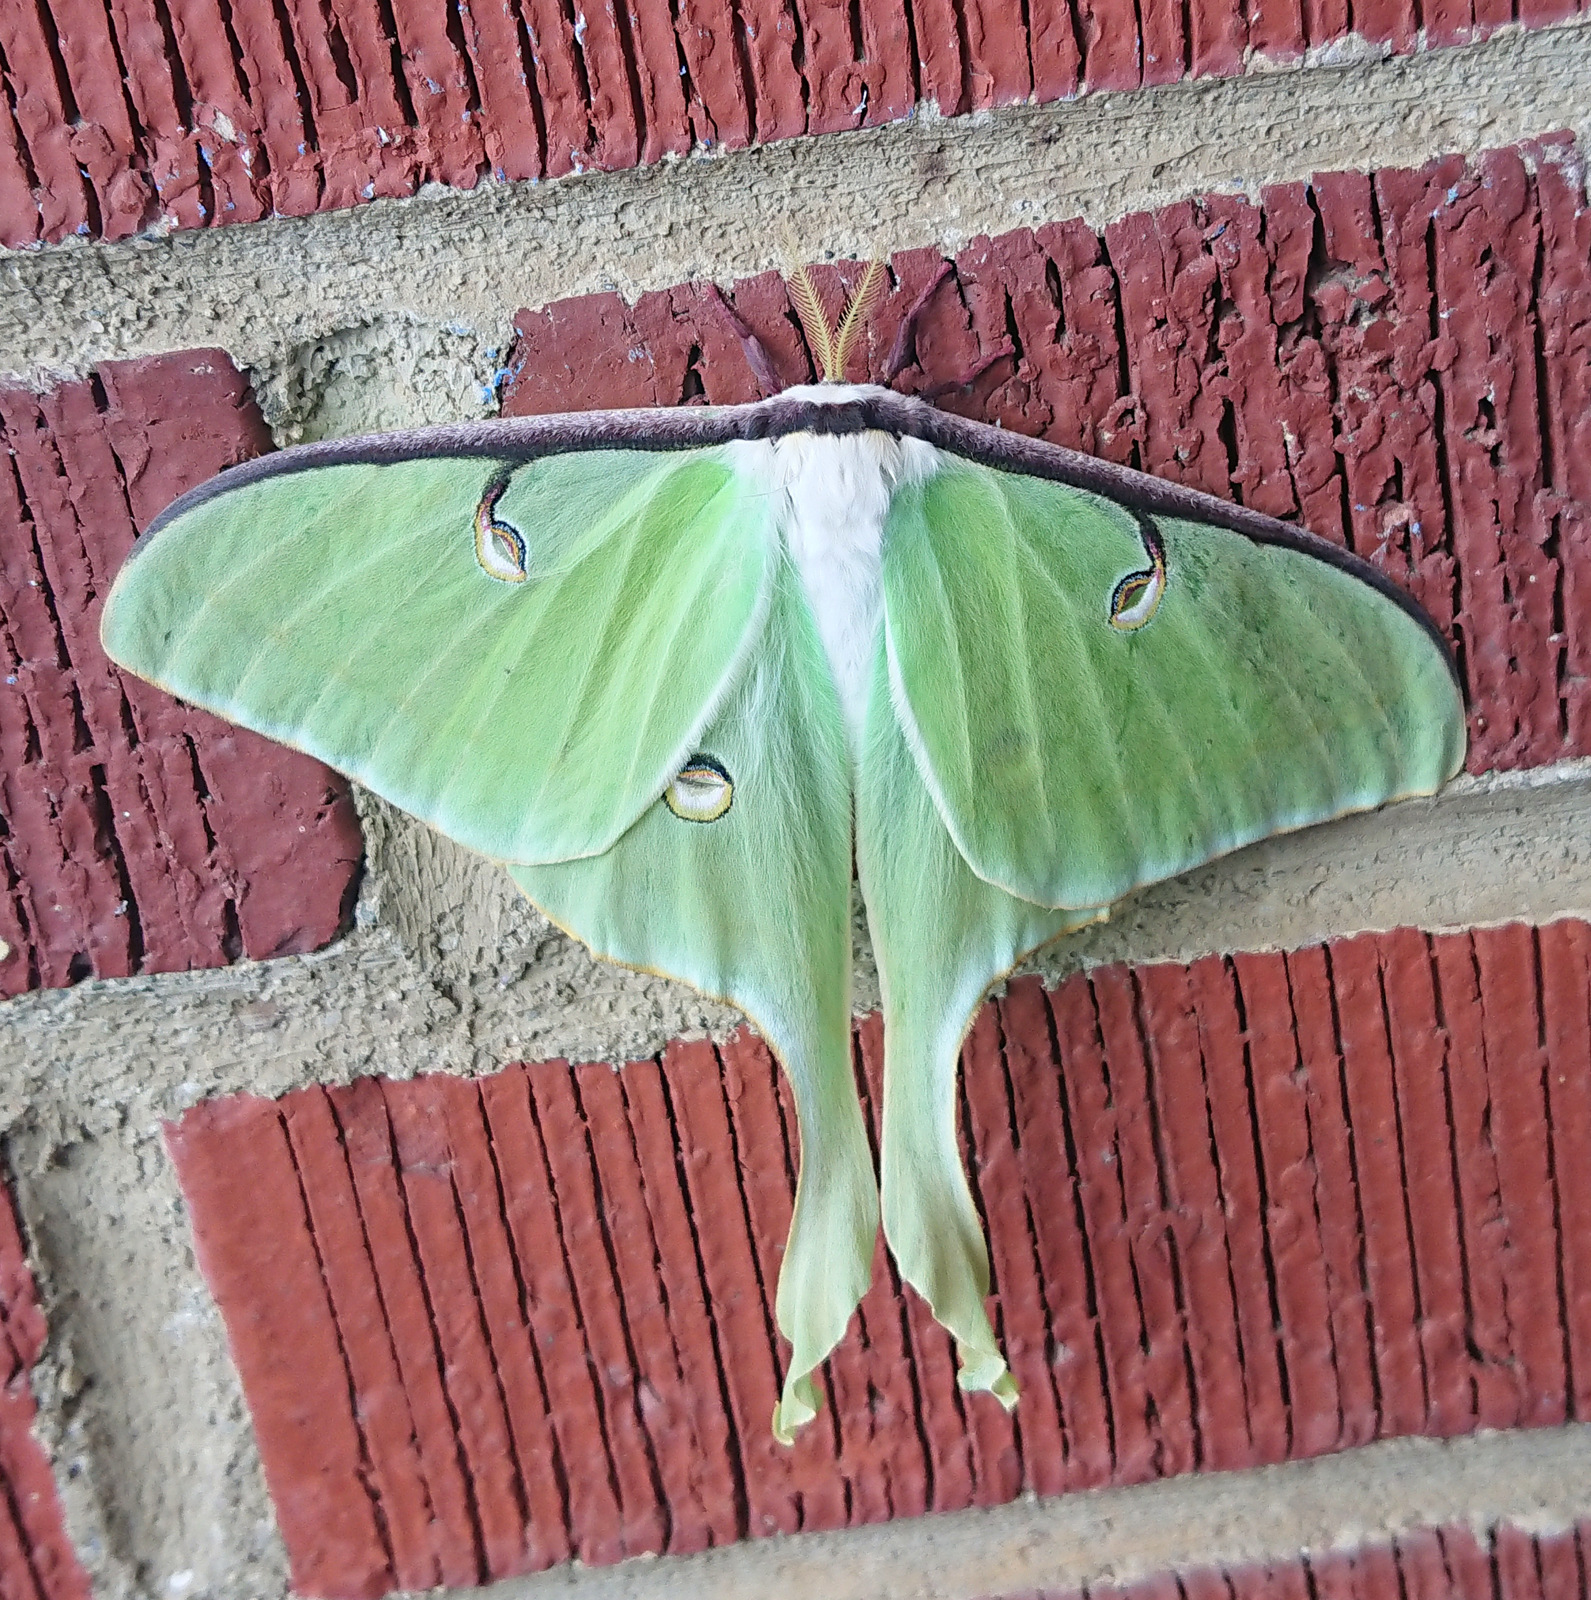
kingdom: Animalia
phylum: Arthropoda
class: Insecta
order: Lepidoptera
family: Saturniidae
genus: Actias
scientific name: Actias luna
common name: Luna moth
